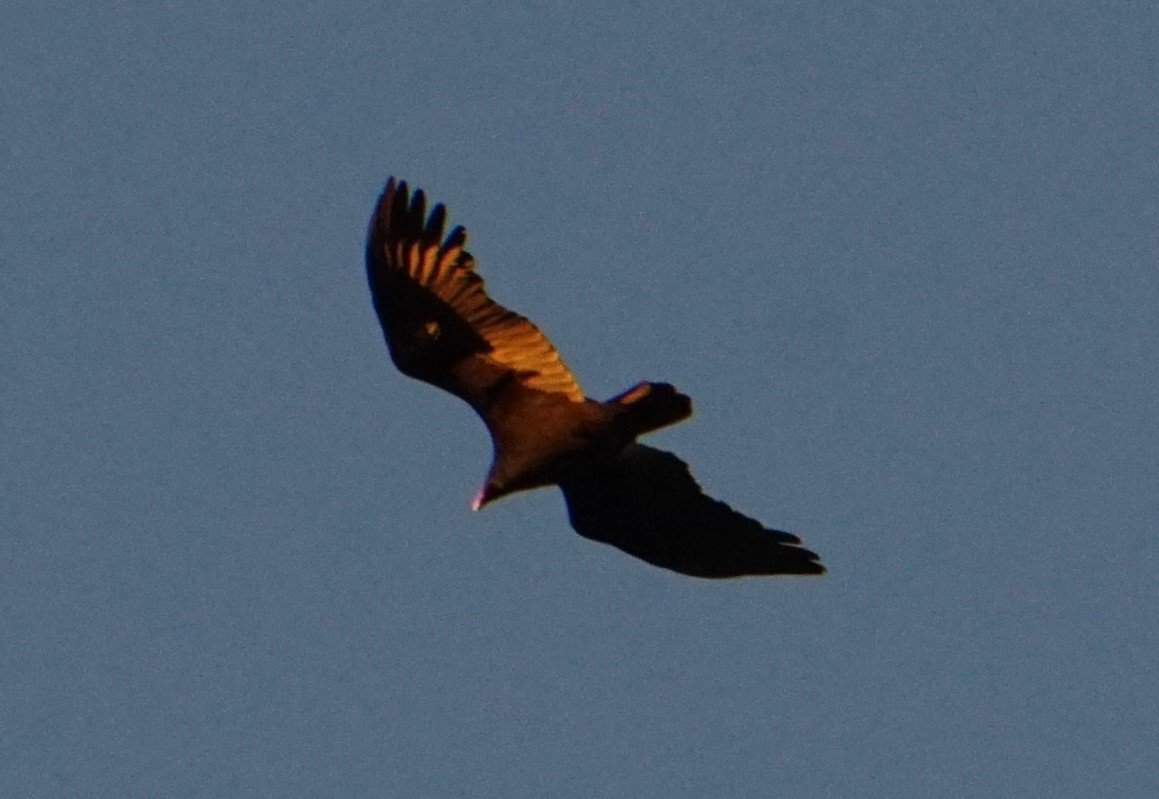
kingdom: Animalia
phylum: Chordata
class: Aves
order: Accipitriformes
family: Cathartidae
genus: Cathartes
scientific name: Cathartes aura
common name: Turkey vulture
